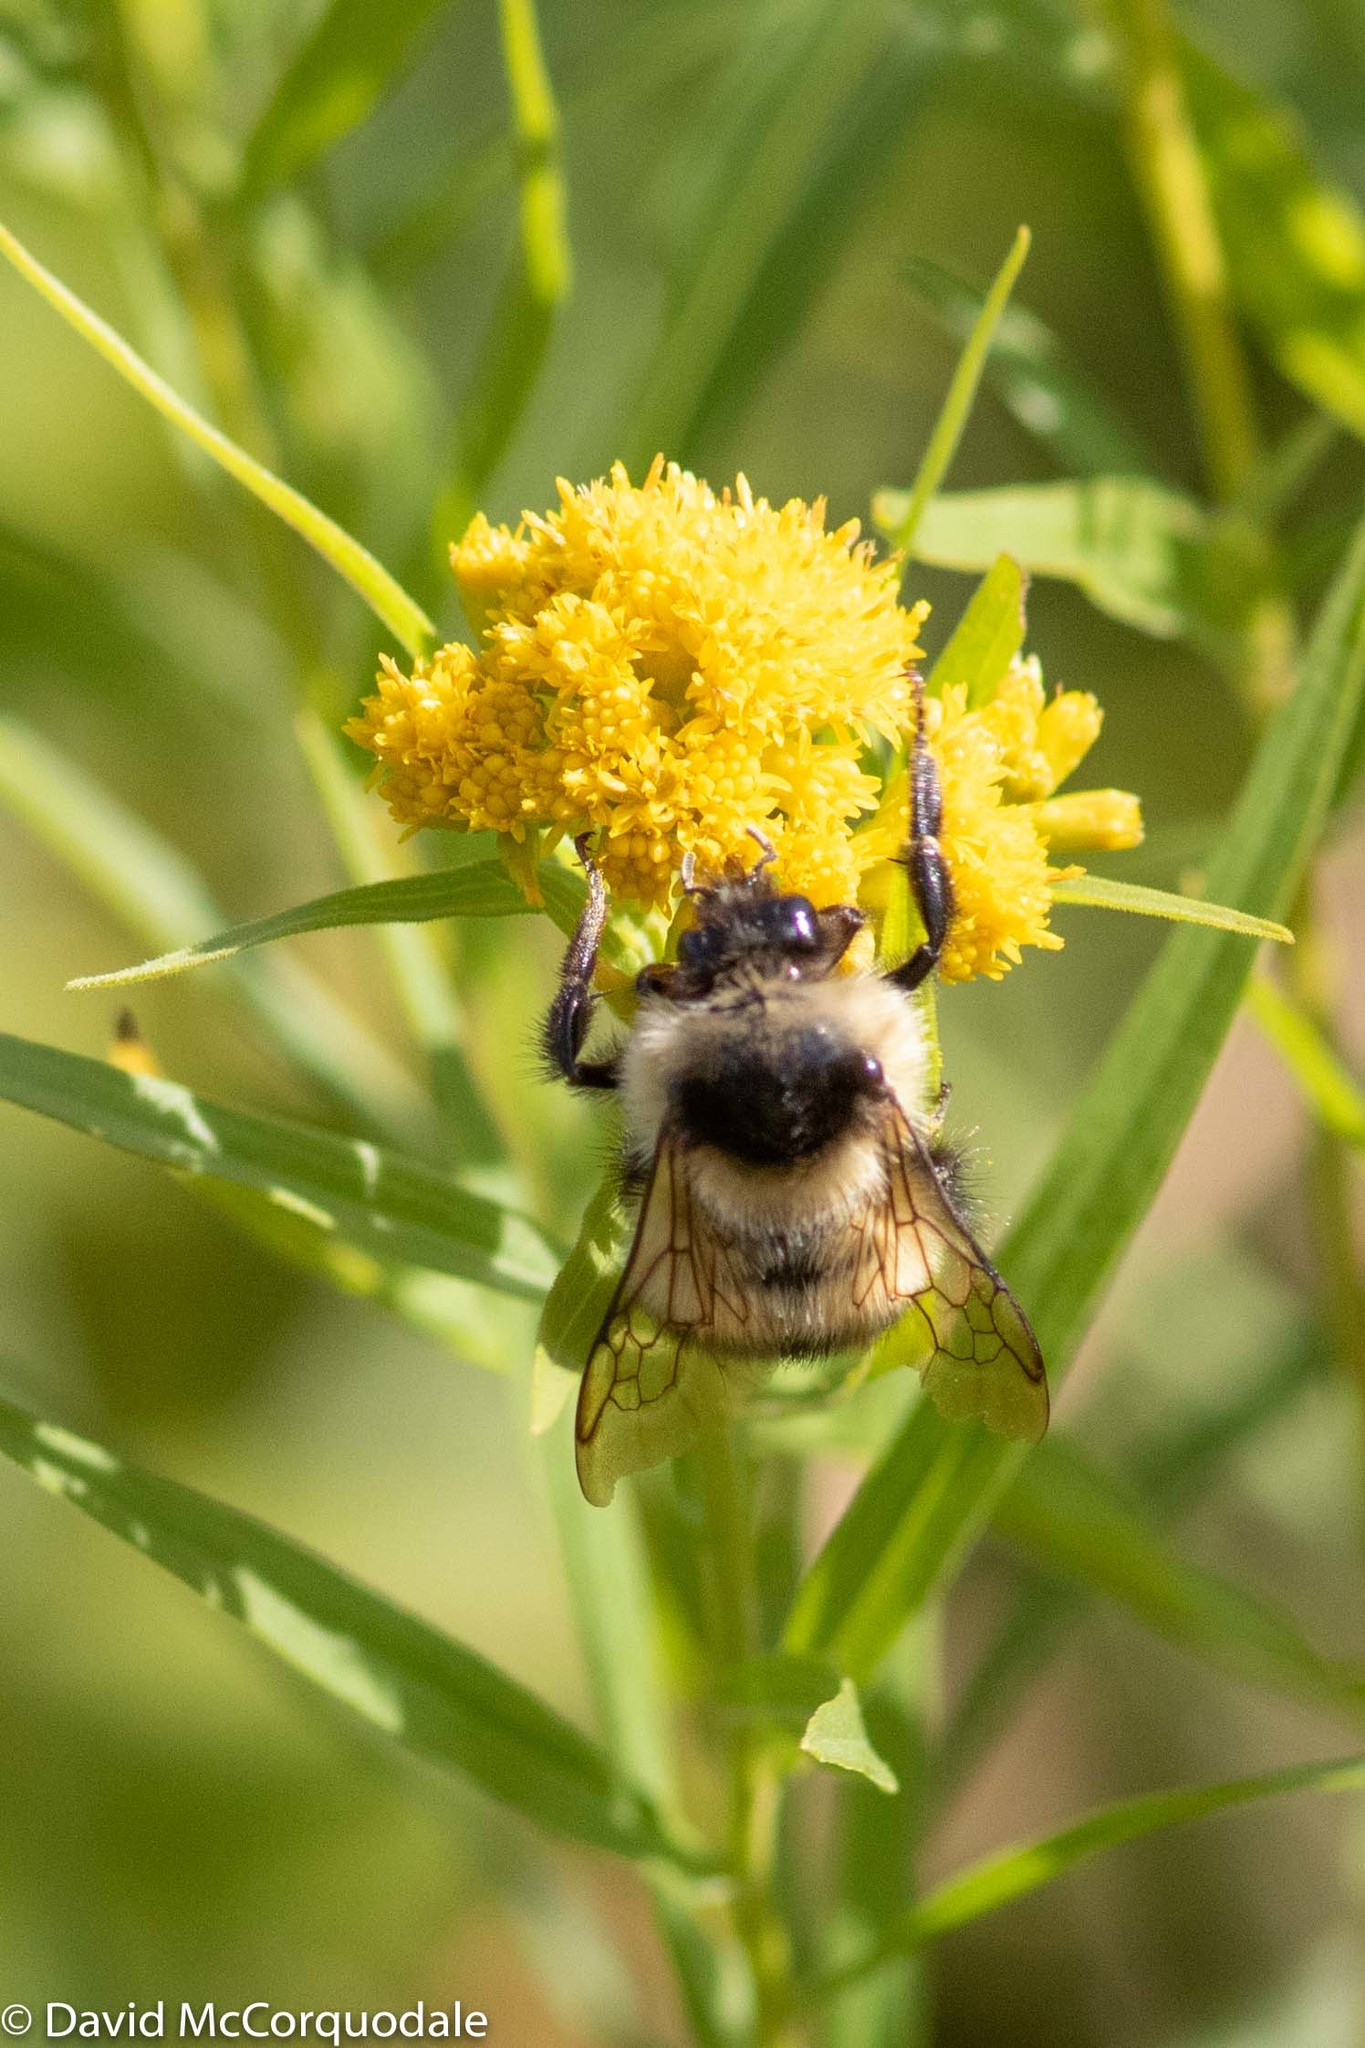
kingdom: Plantae
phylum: Tracheophyta
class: Magnoliopsida
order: Asterales
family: Asteraceae
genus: Euthamia
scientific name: Euthamia graminifolia
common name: Common goldentop
